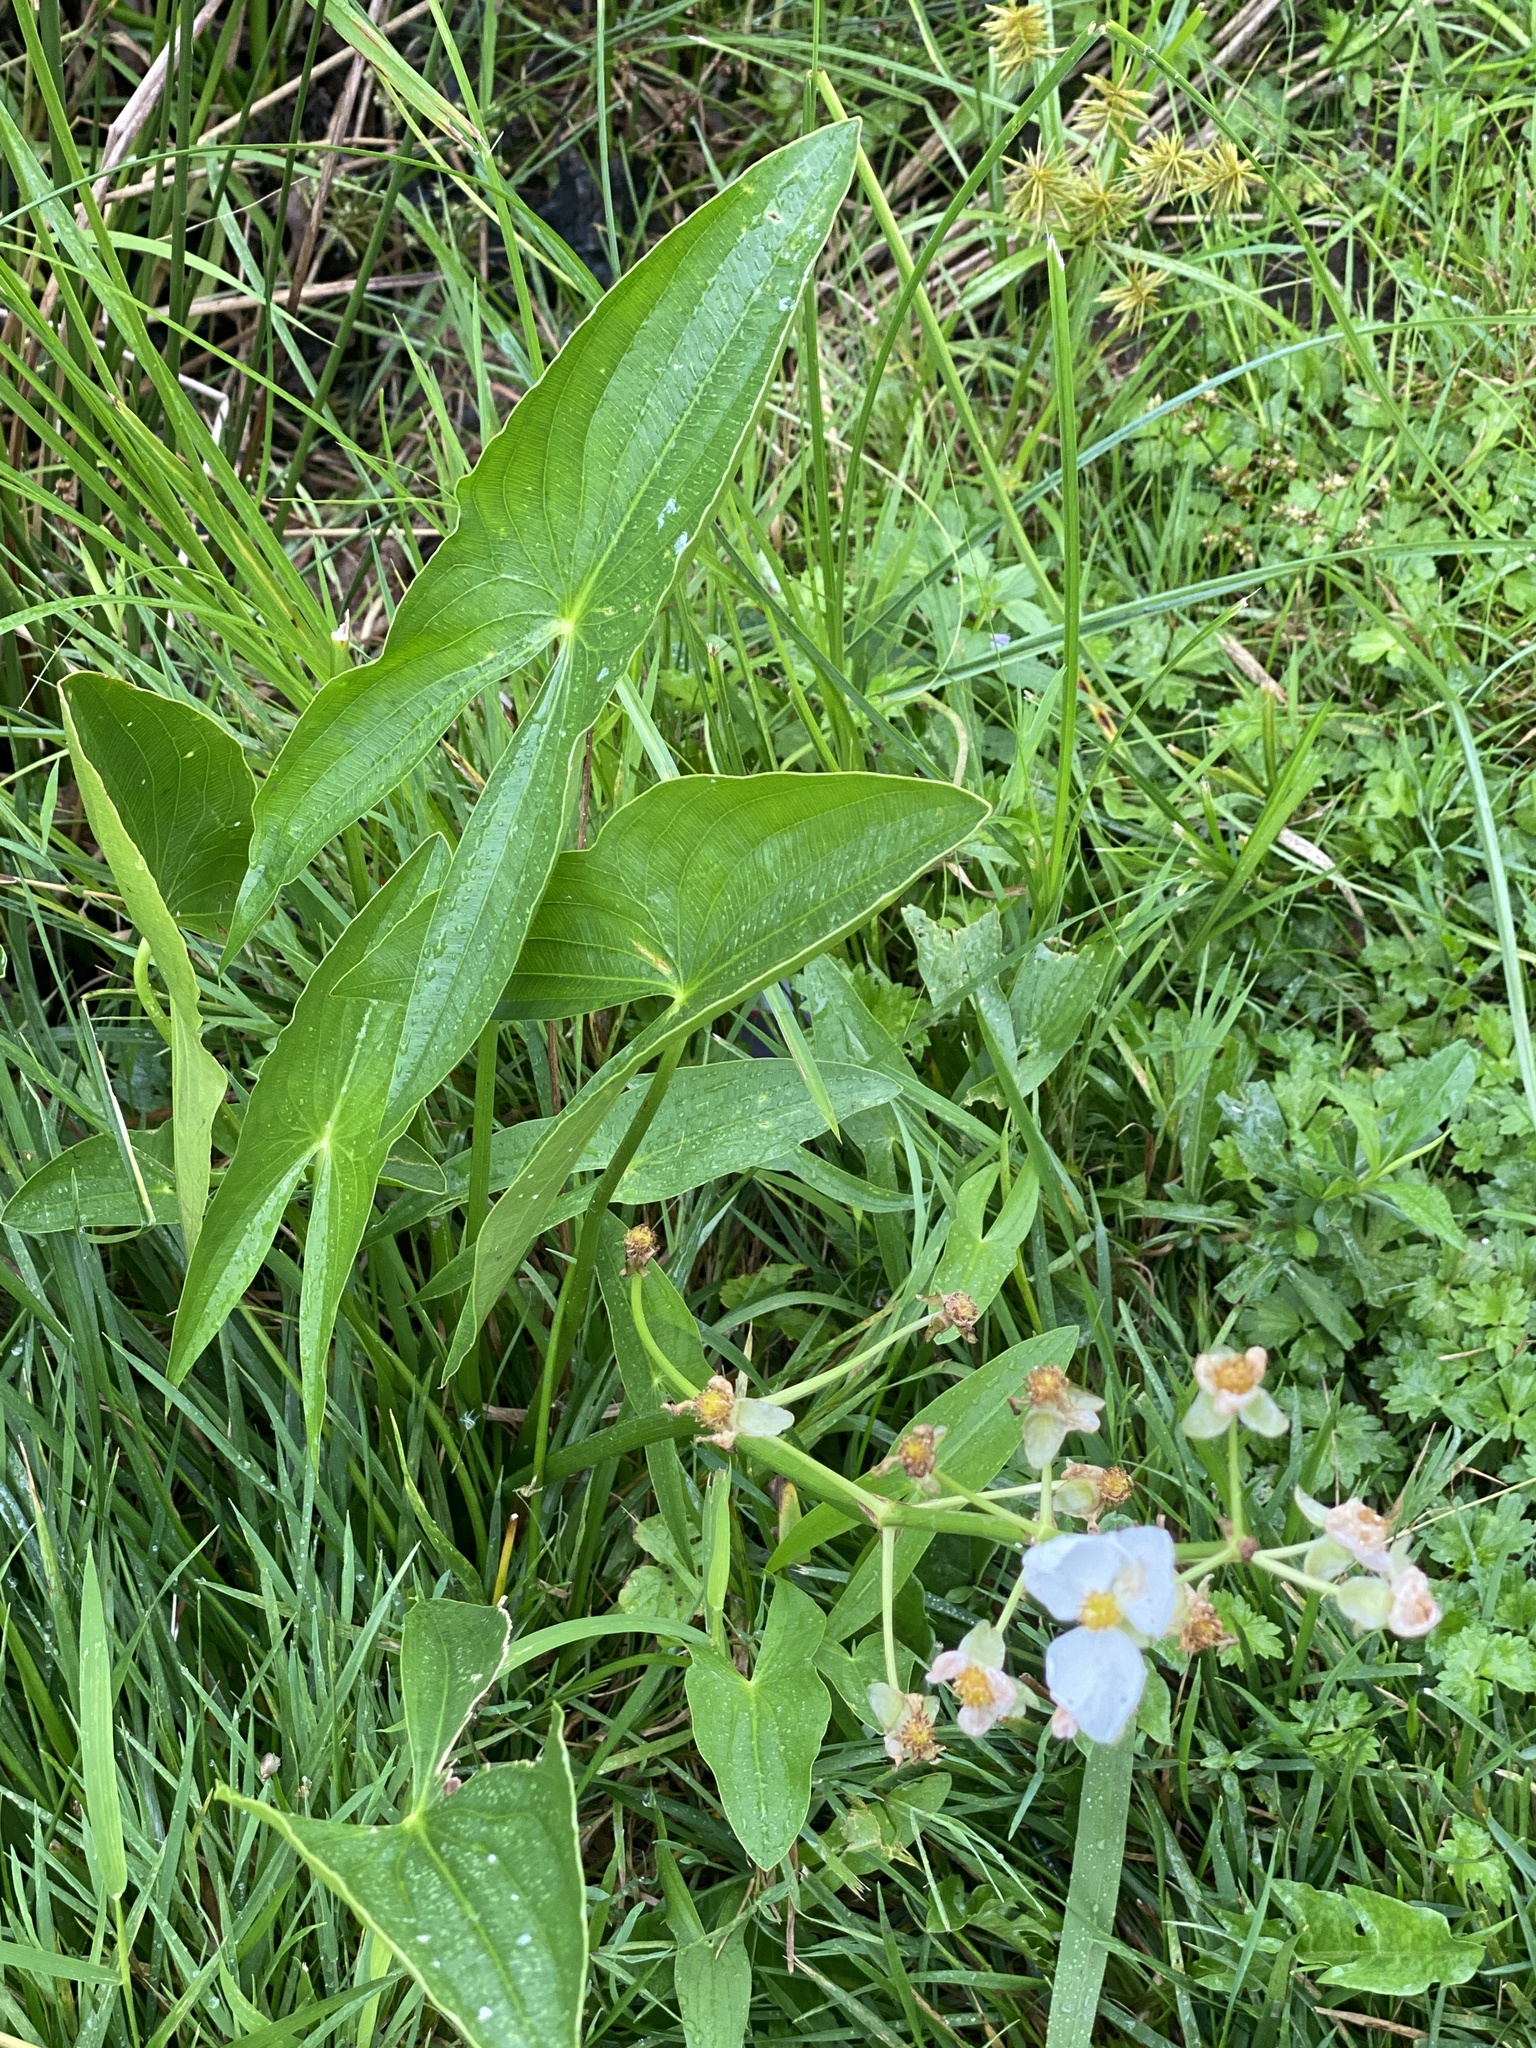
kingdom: Plantae
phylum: Tracheophyta
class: Liliopsida
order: Alismatales
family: Alismataceae
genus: Sagittaria
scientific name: Sagittaria latifolia
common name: Duck-potato
